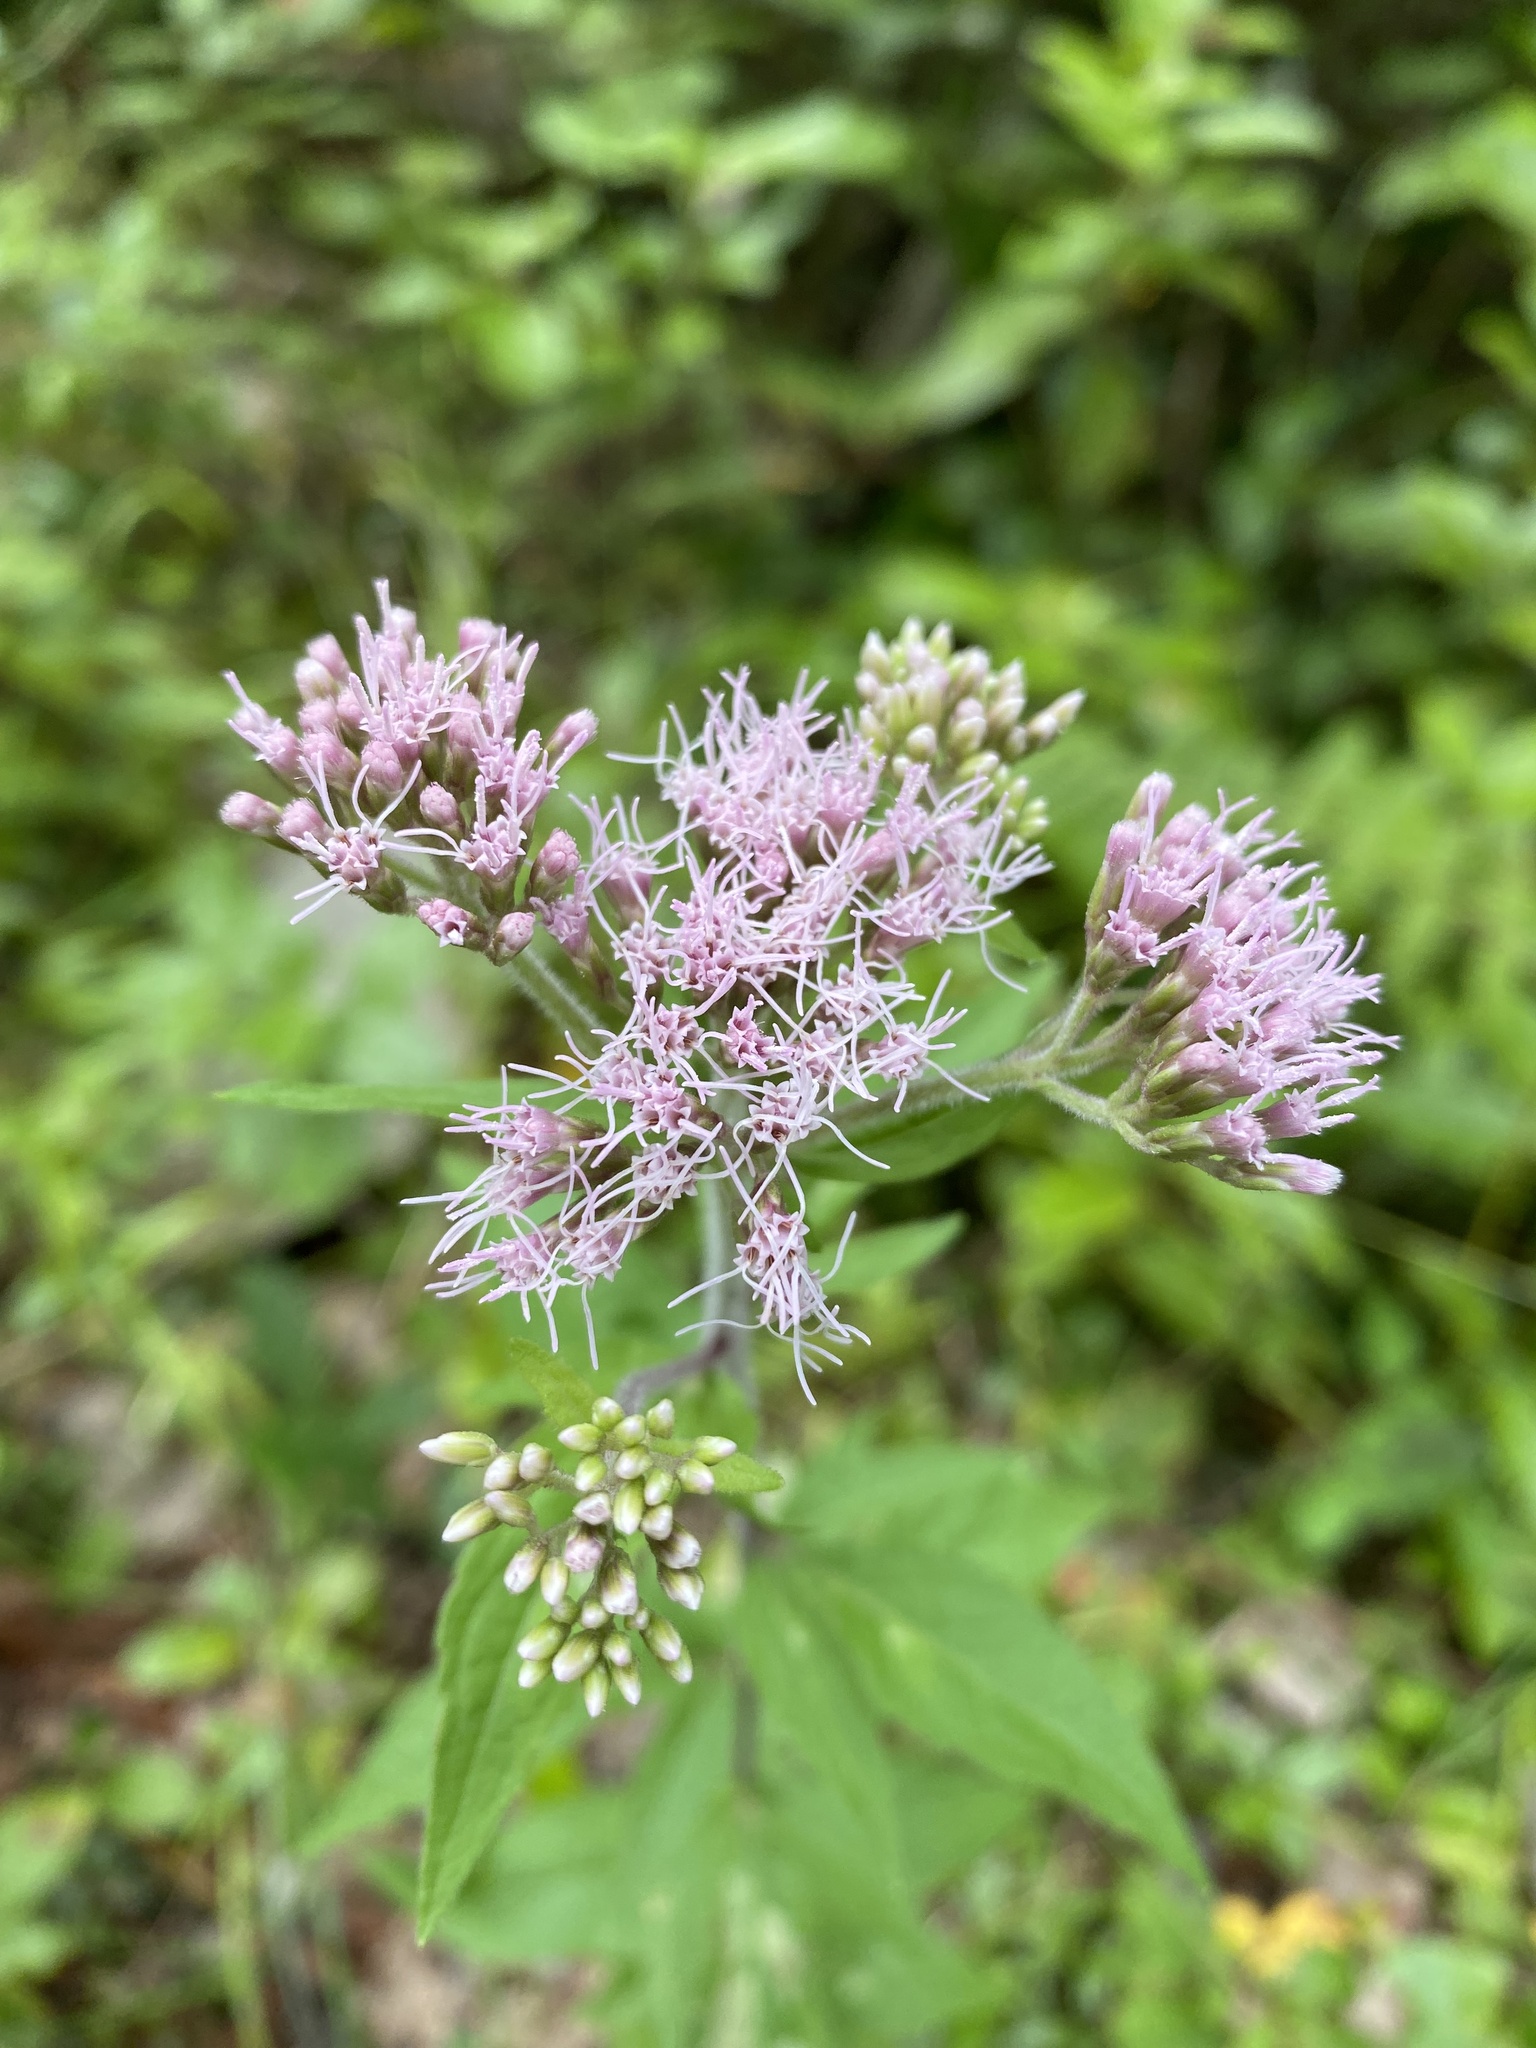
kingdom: Plantae
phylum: Tracheophyta
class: Magnoliopsida
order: Asterales
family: Asteraceae
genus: Eupatorium
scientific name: Eupatorium cannabinum
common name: Hemp-agrimony
